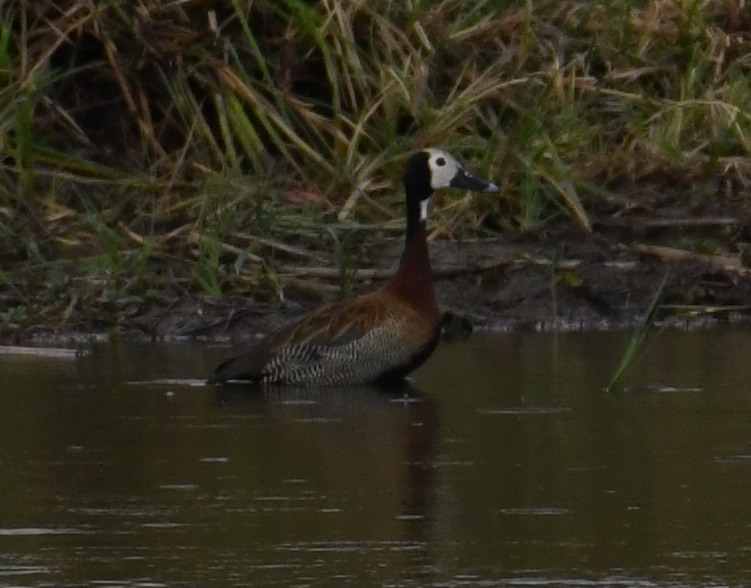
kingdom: Animalia
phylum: Chordata
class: Aves
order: Anseriformes
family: Anatidae
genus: Dendrocygna
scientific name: Dendrocygna viduata
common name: White-faced whistling duck
